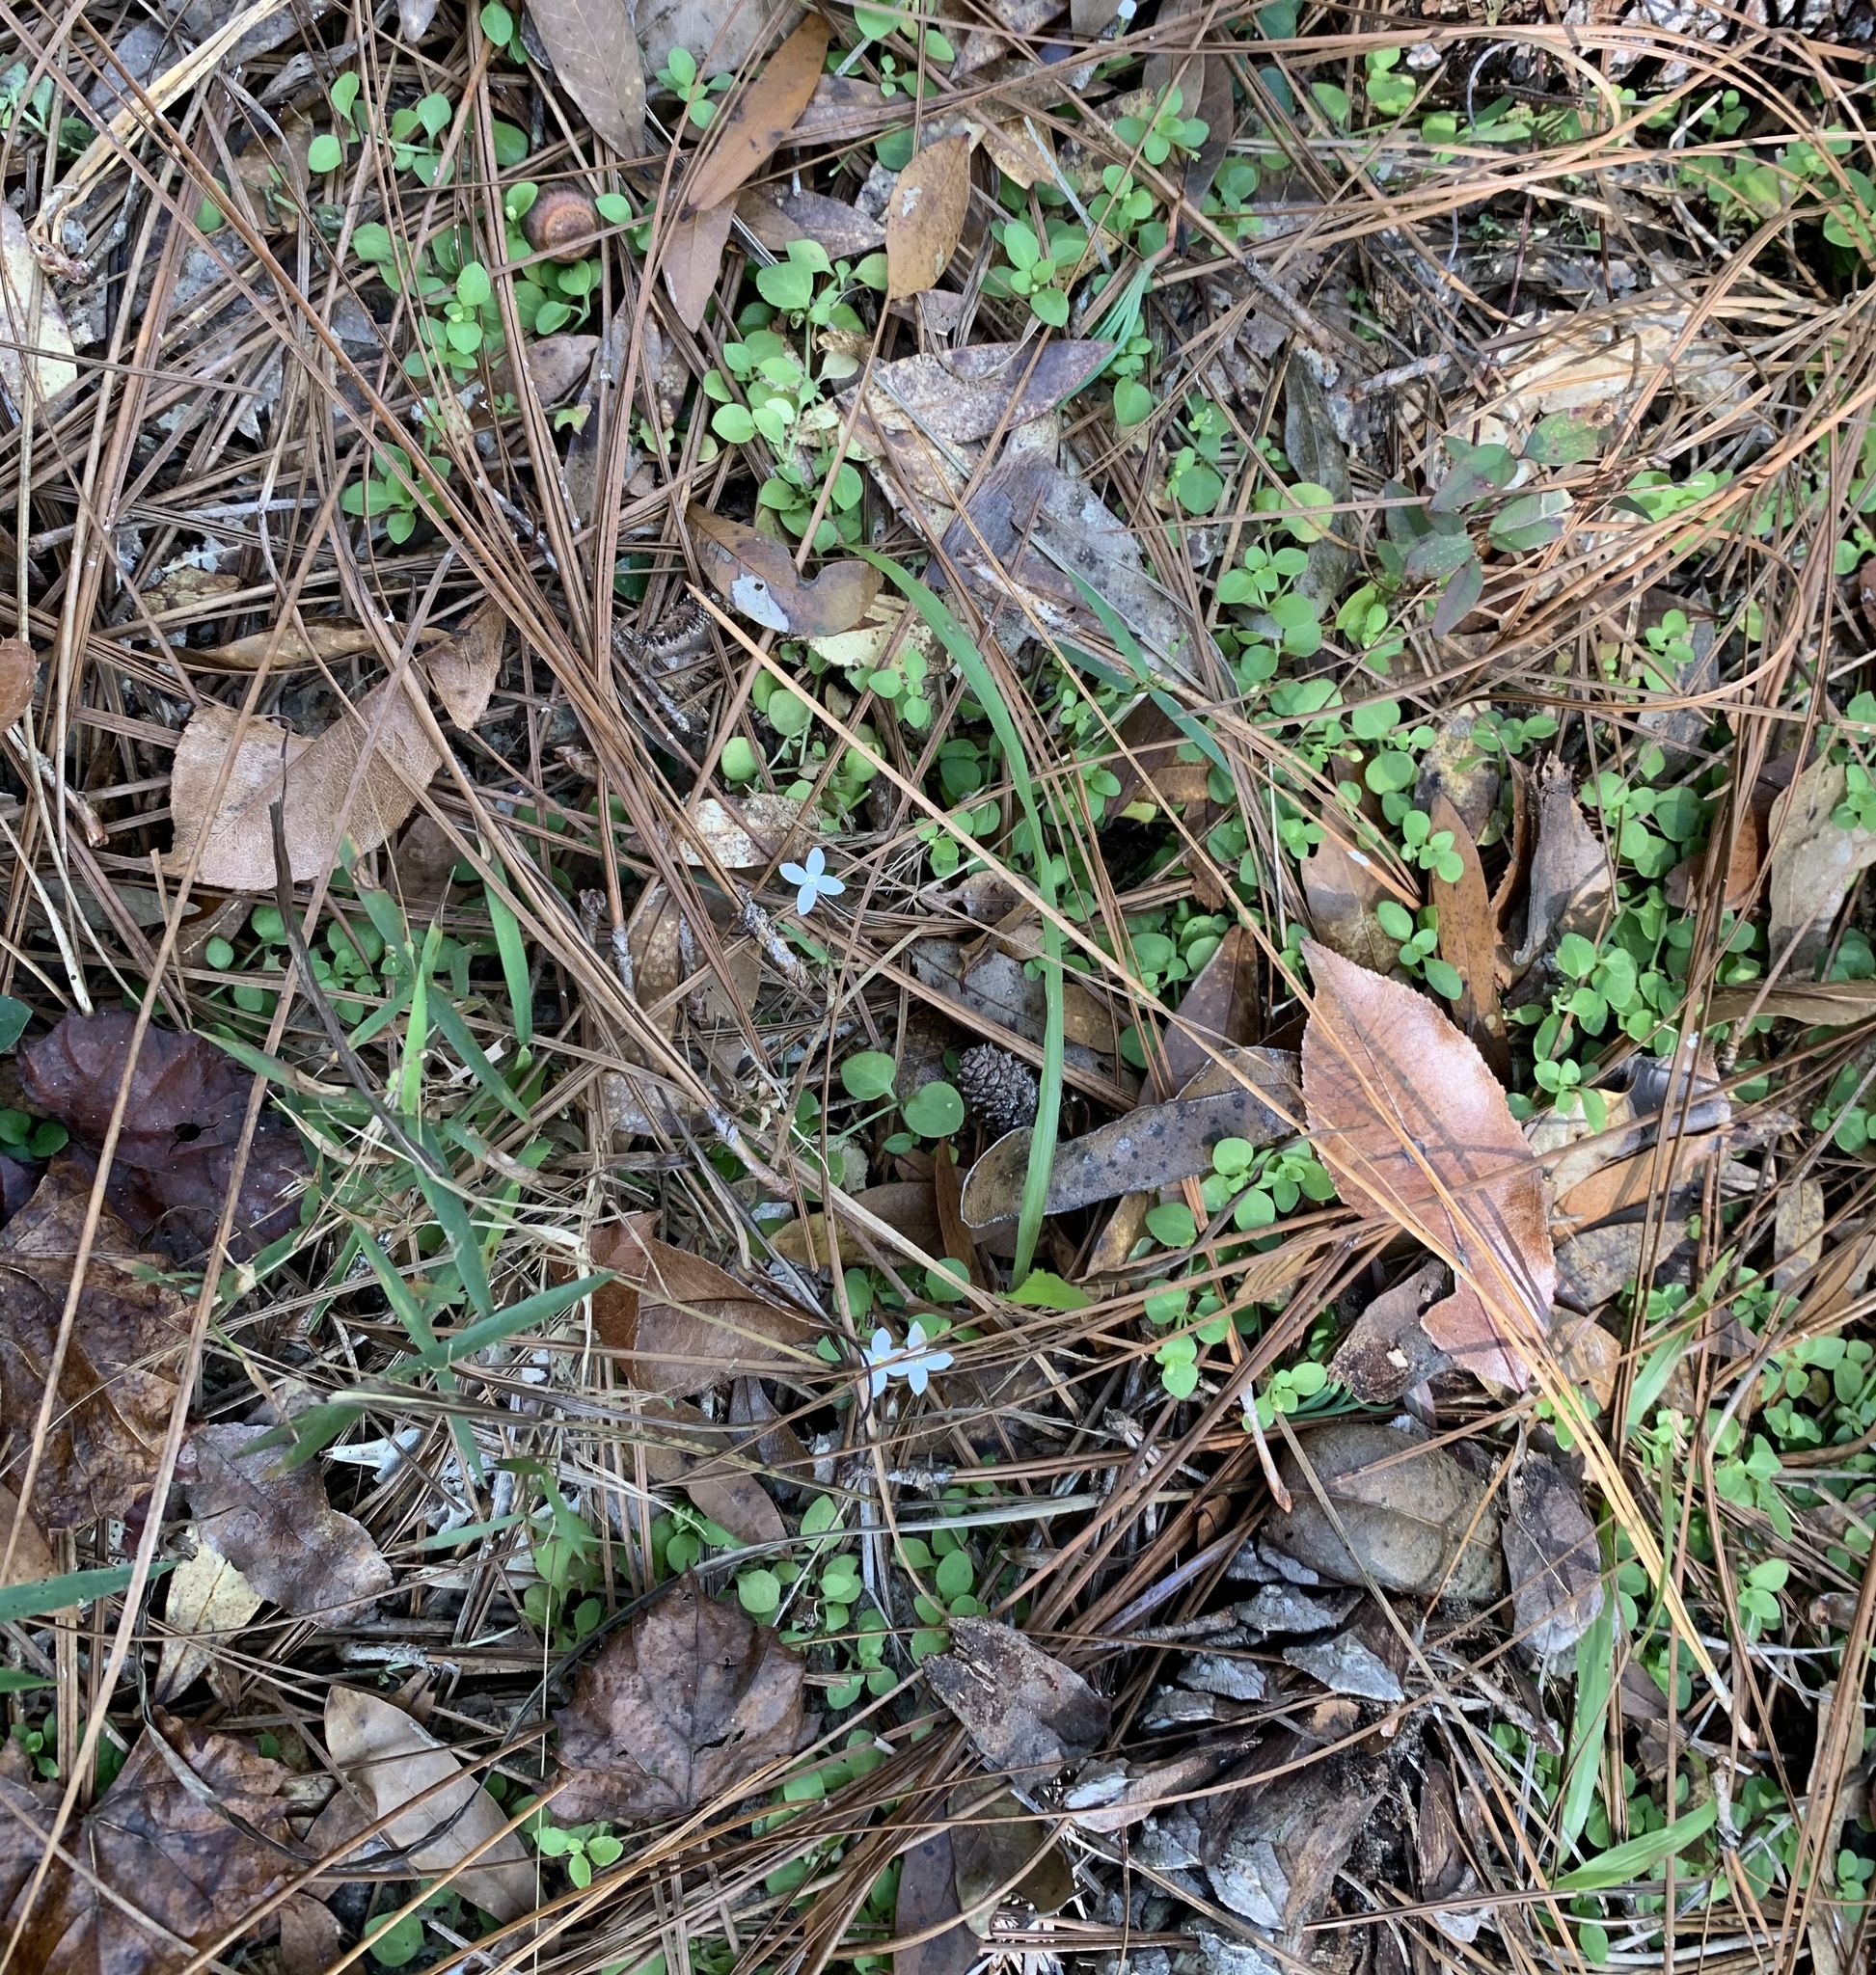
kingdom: Plantae
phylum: Tracheophyta
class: Magnoliopsida
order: Gentianales
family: Rubiaceae
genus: Houstonia
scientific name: Houstonia procumbens
